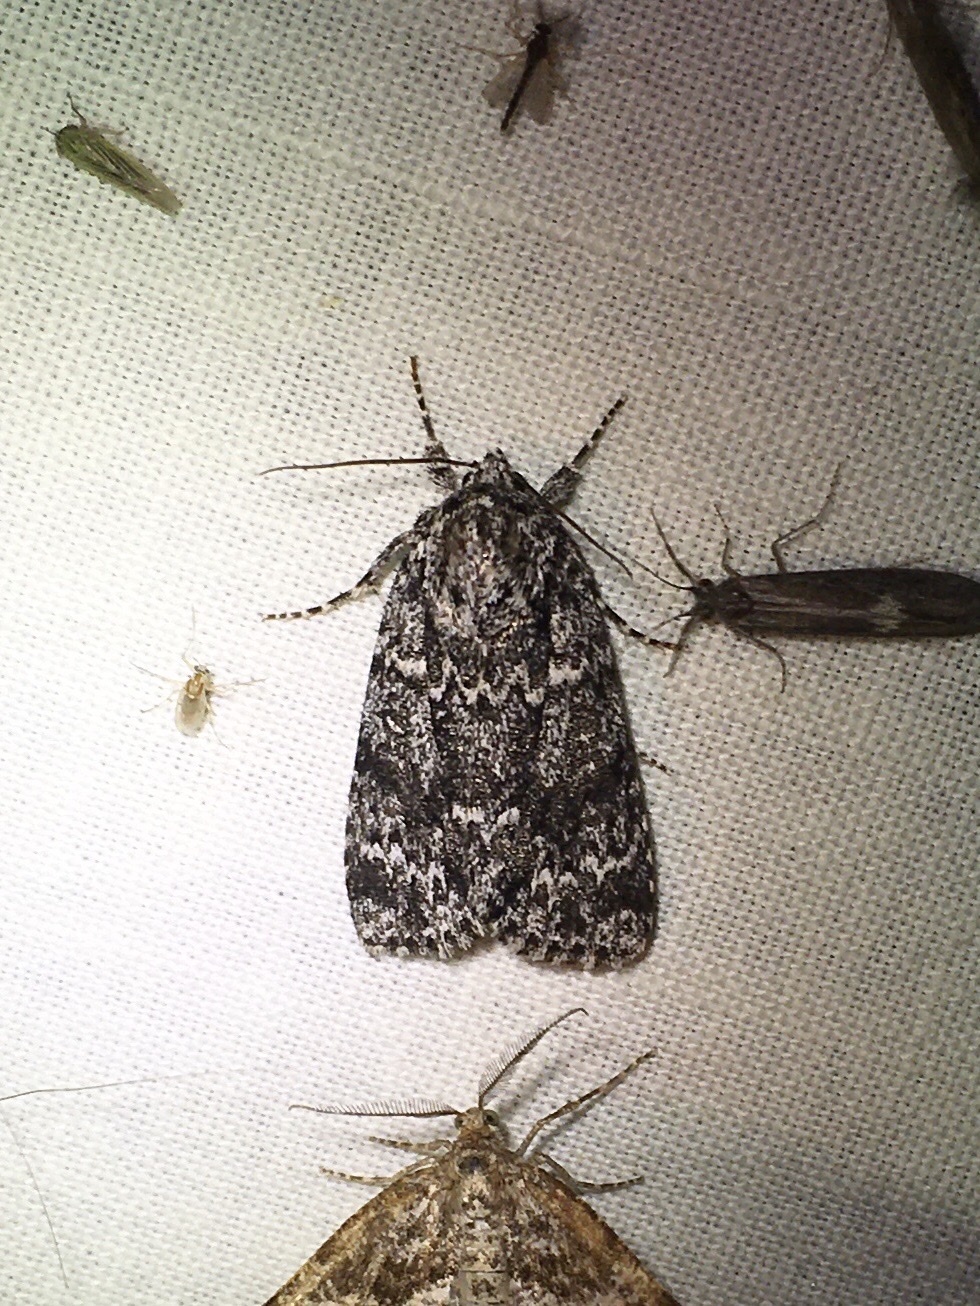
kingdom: Animalia
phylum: Arthropoda
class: Insecta
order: Lepidoptera
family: Noctuidae
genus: Acronicta
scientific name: Acronicta noctivaga
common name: Night-wandering dagger
